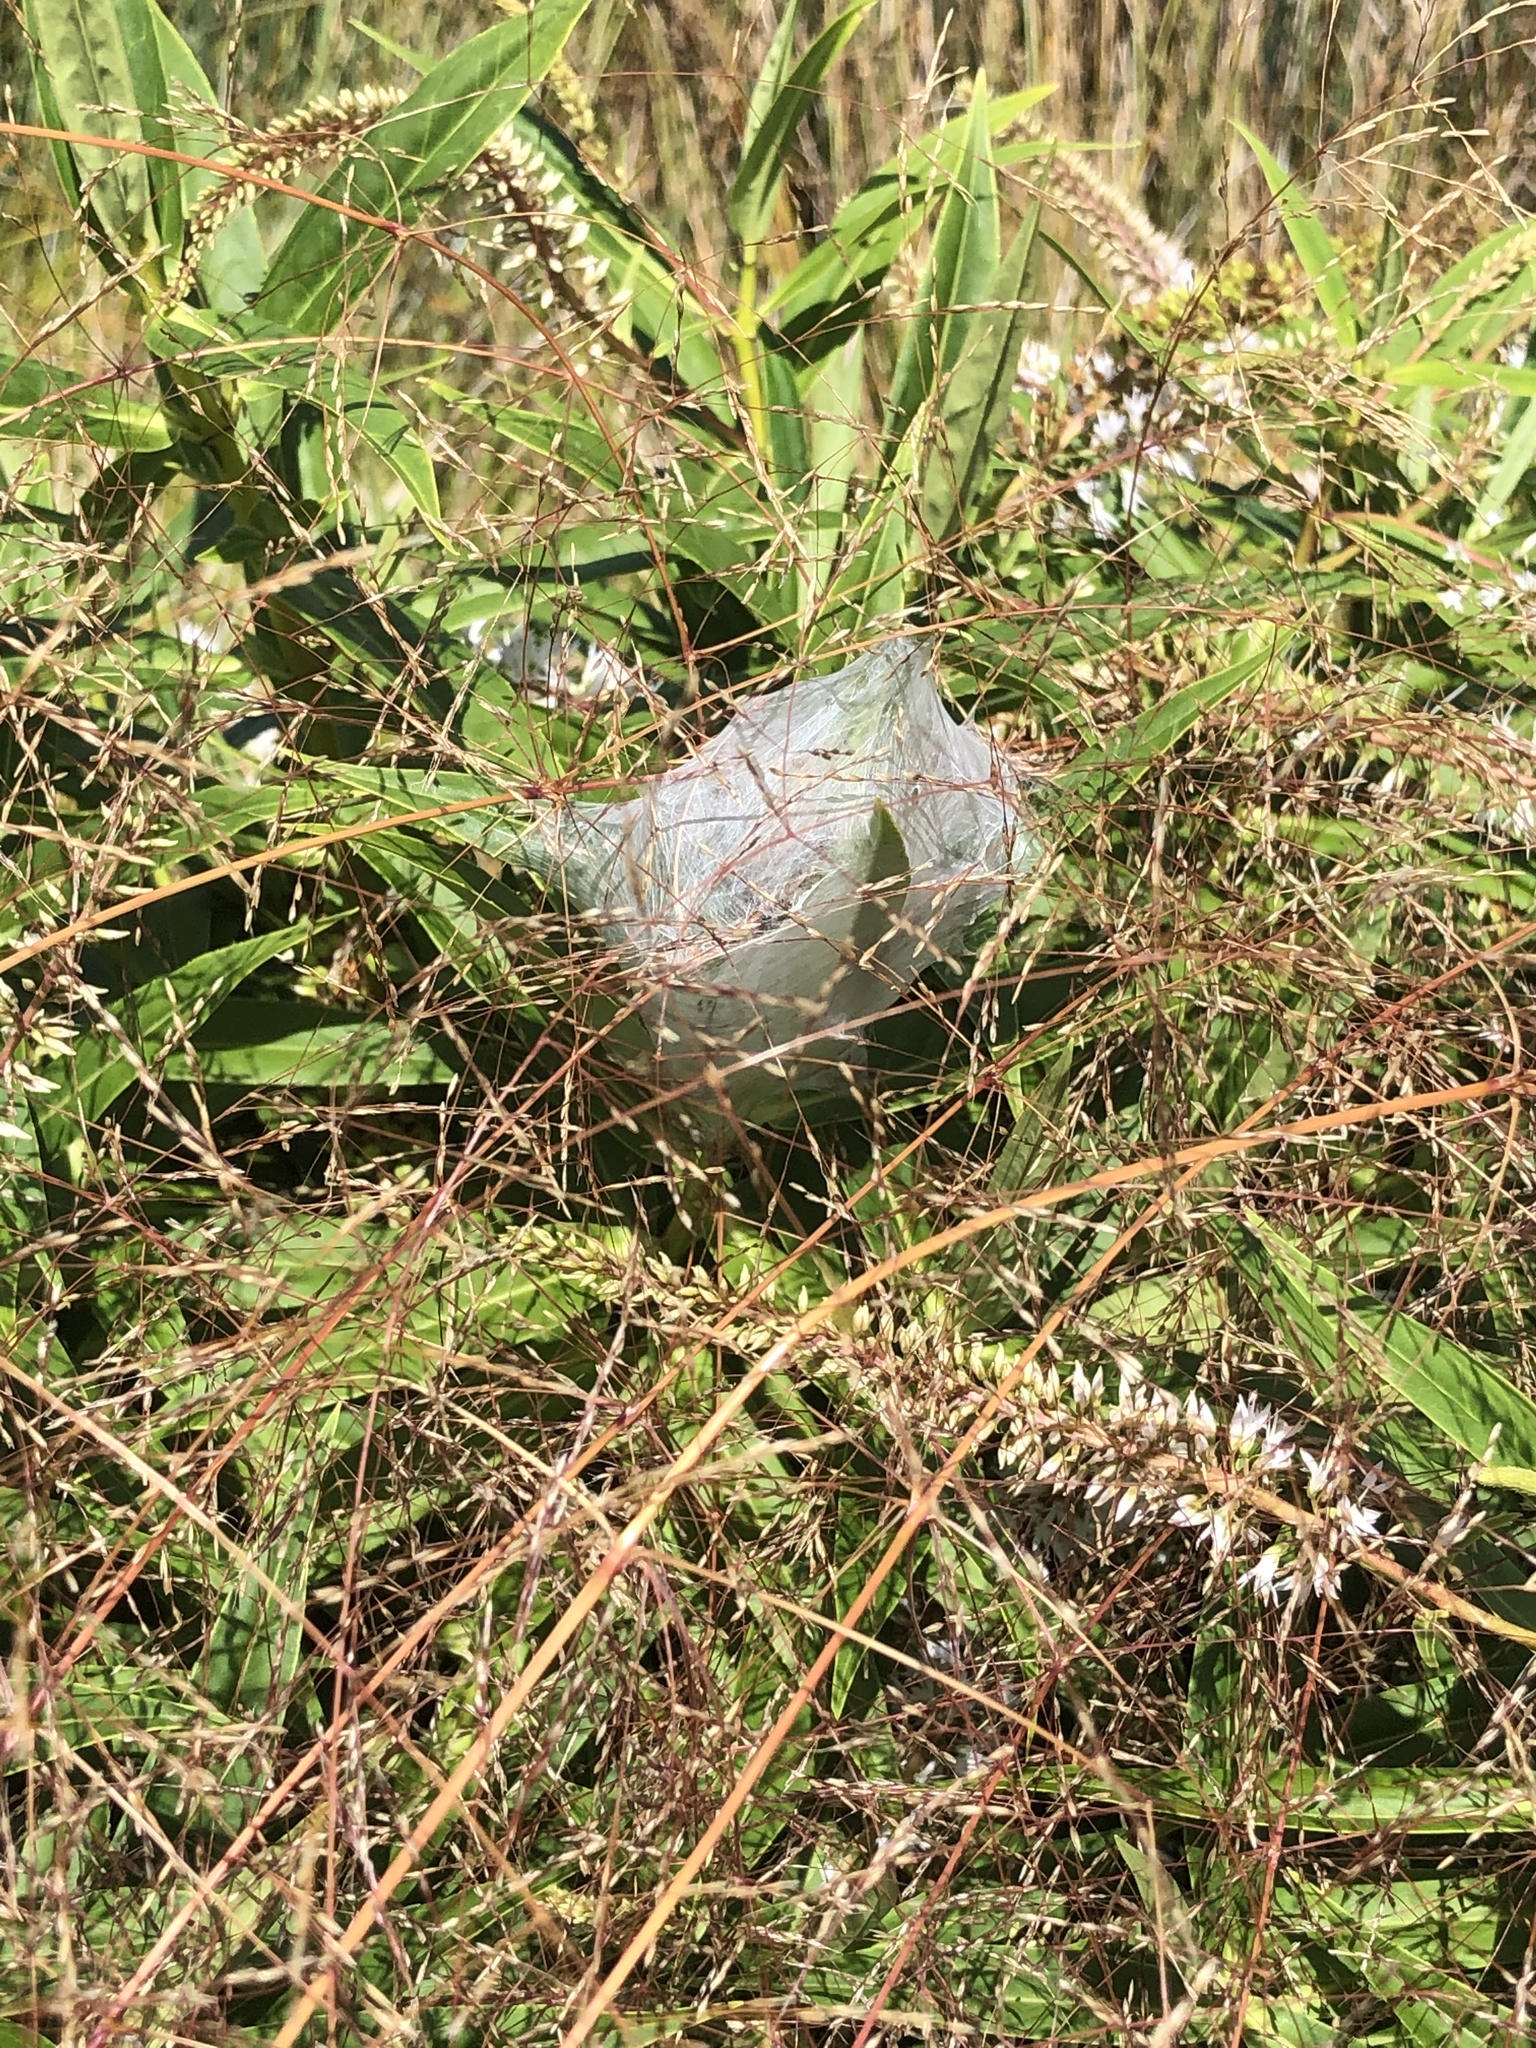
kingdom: Animalia
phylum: Arthropoda
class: Arachnida
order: Araneae
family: Pisauridae
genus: Dolomedes
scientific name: Dolomedes minor
